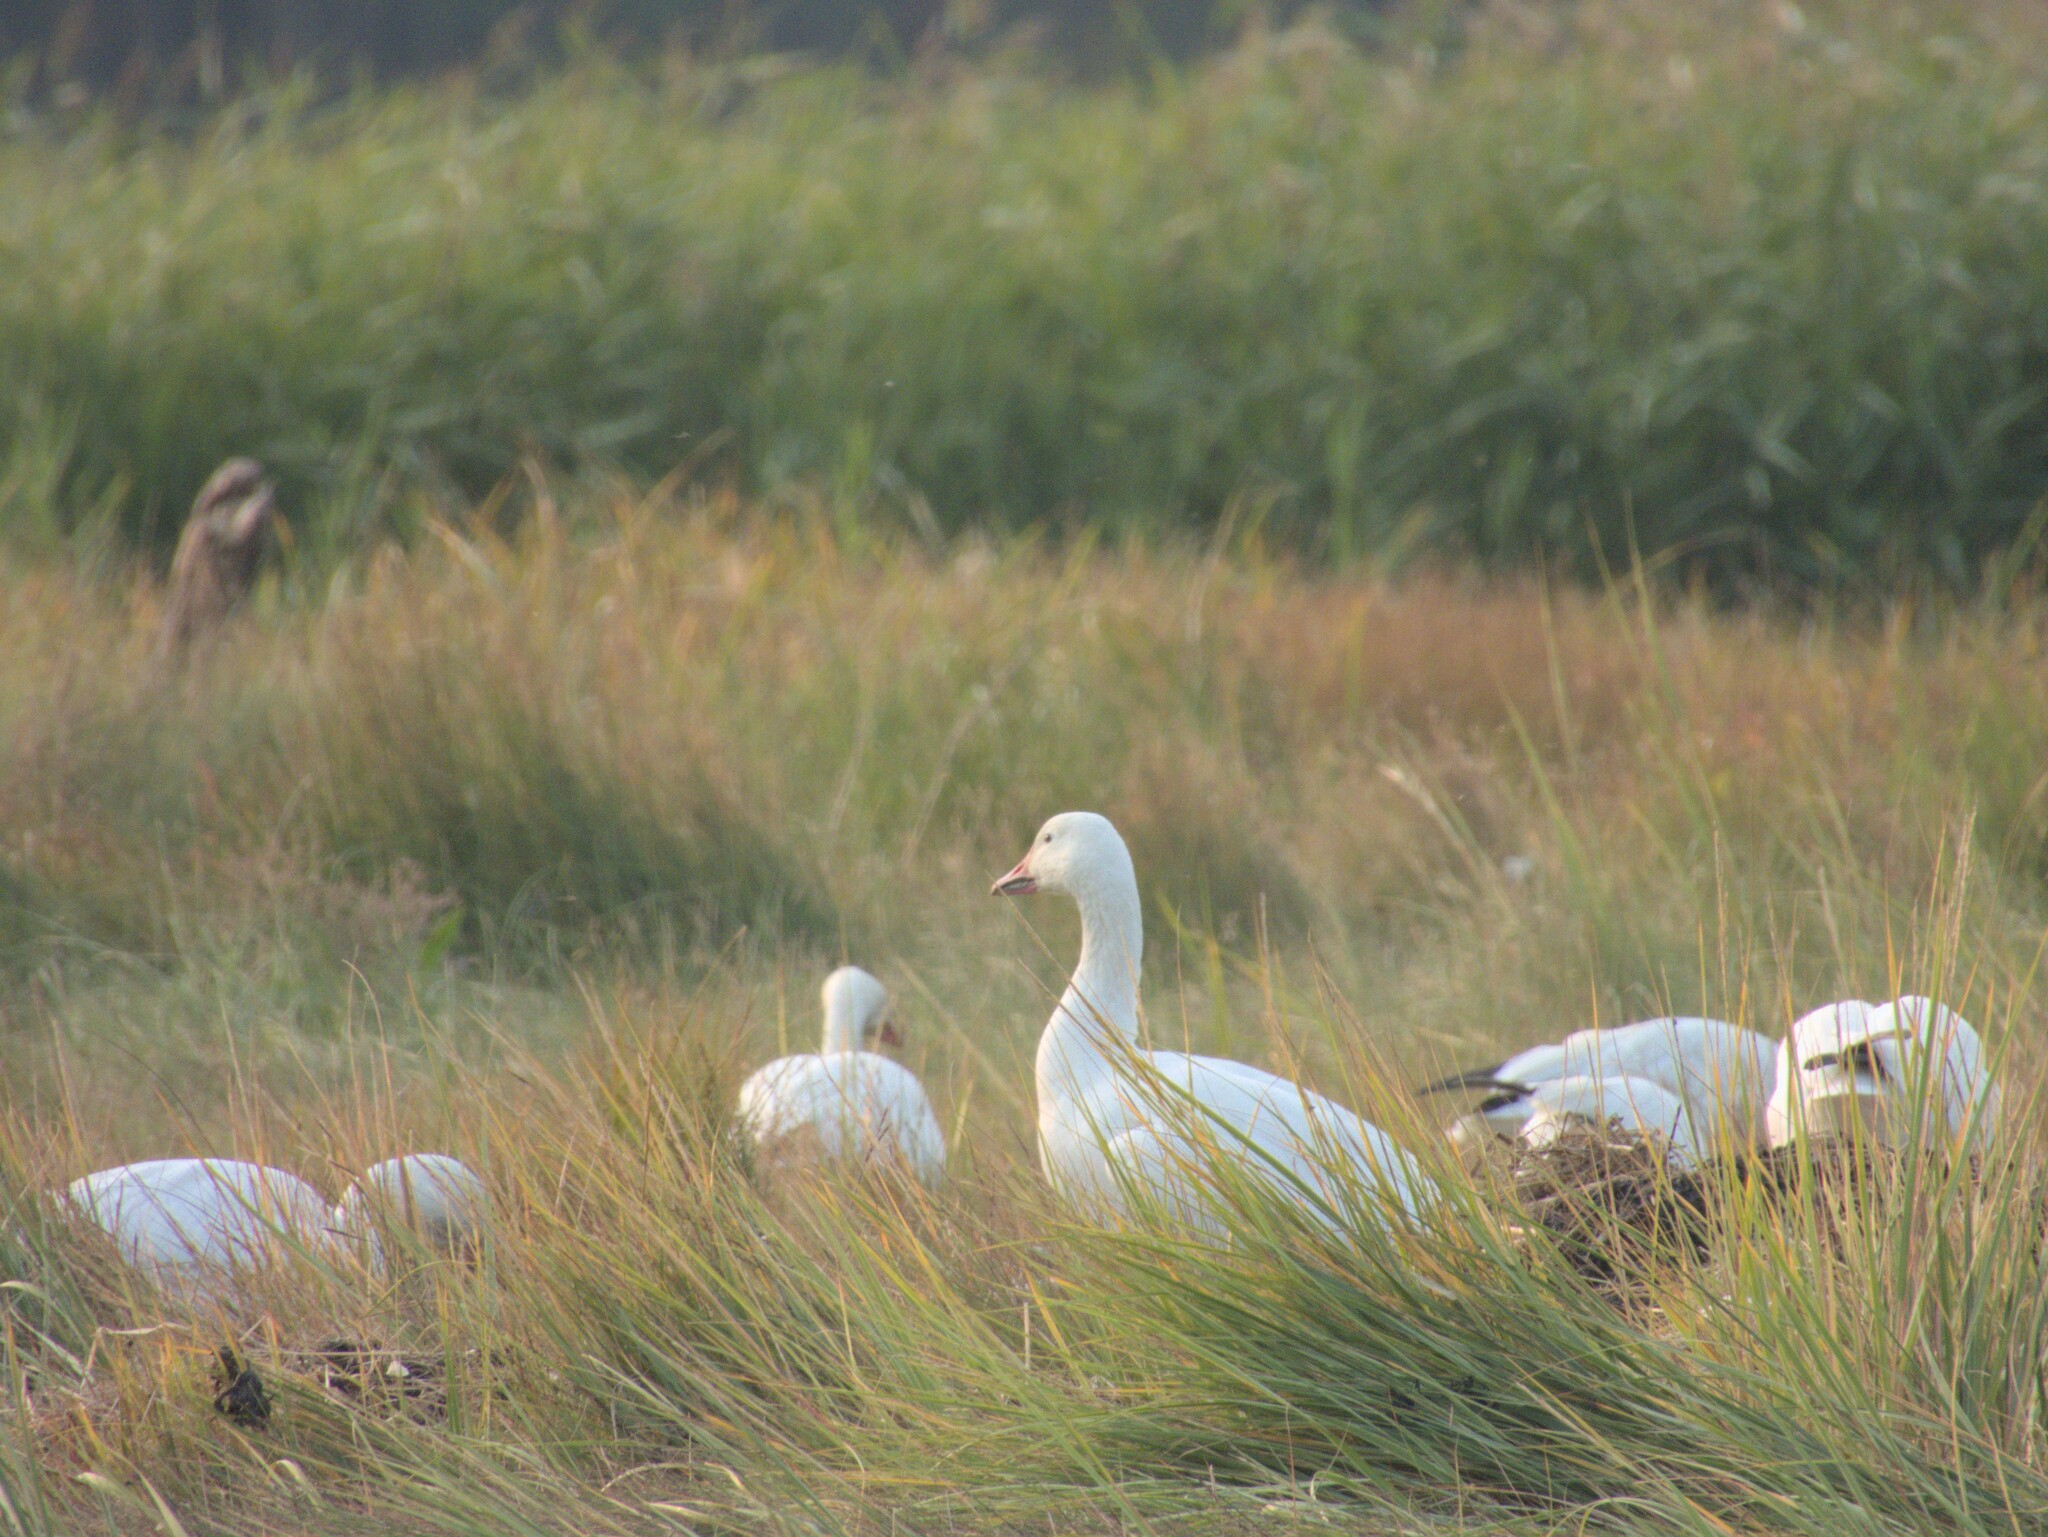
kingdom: Animalia
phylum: Chordata
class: Aves
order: Anseriformes
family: Anatidae
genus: Anser
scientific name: Anser caerulescens
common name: Snow goose
